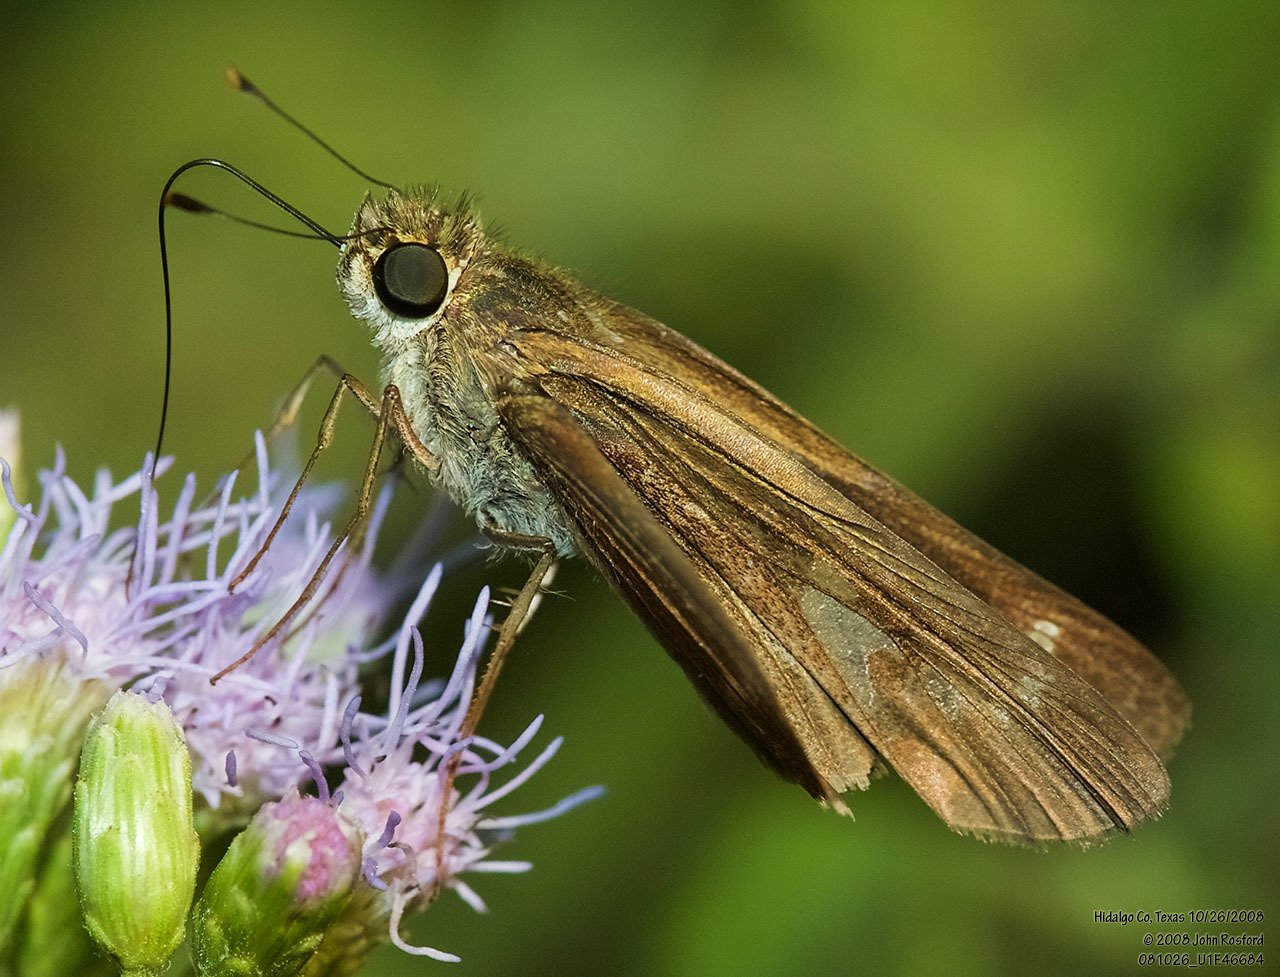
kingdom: Animalia
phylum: Arthropoda
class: Insecta
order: Lepidoptera
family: Hesperiidae
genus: Turesis
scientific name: Turesis lucas
